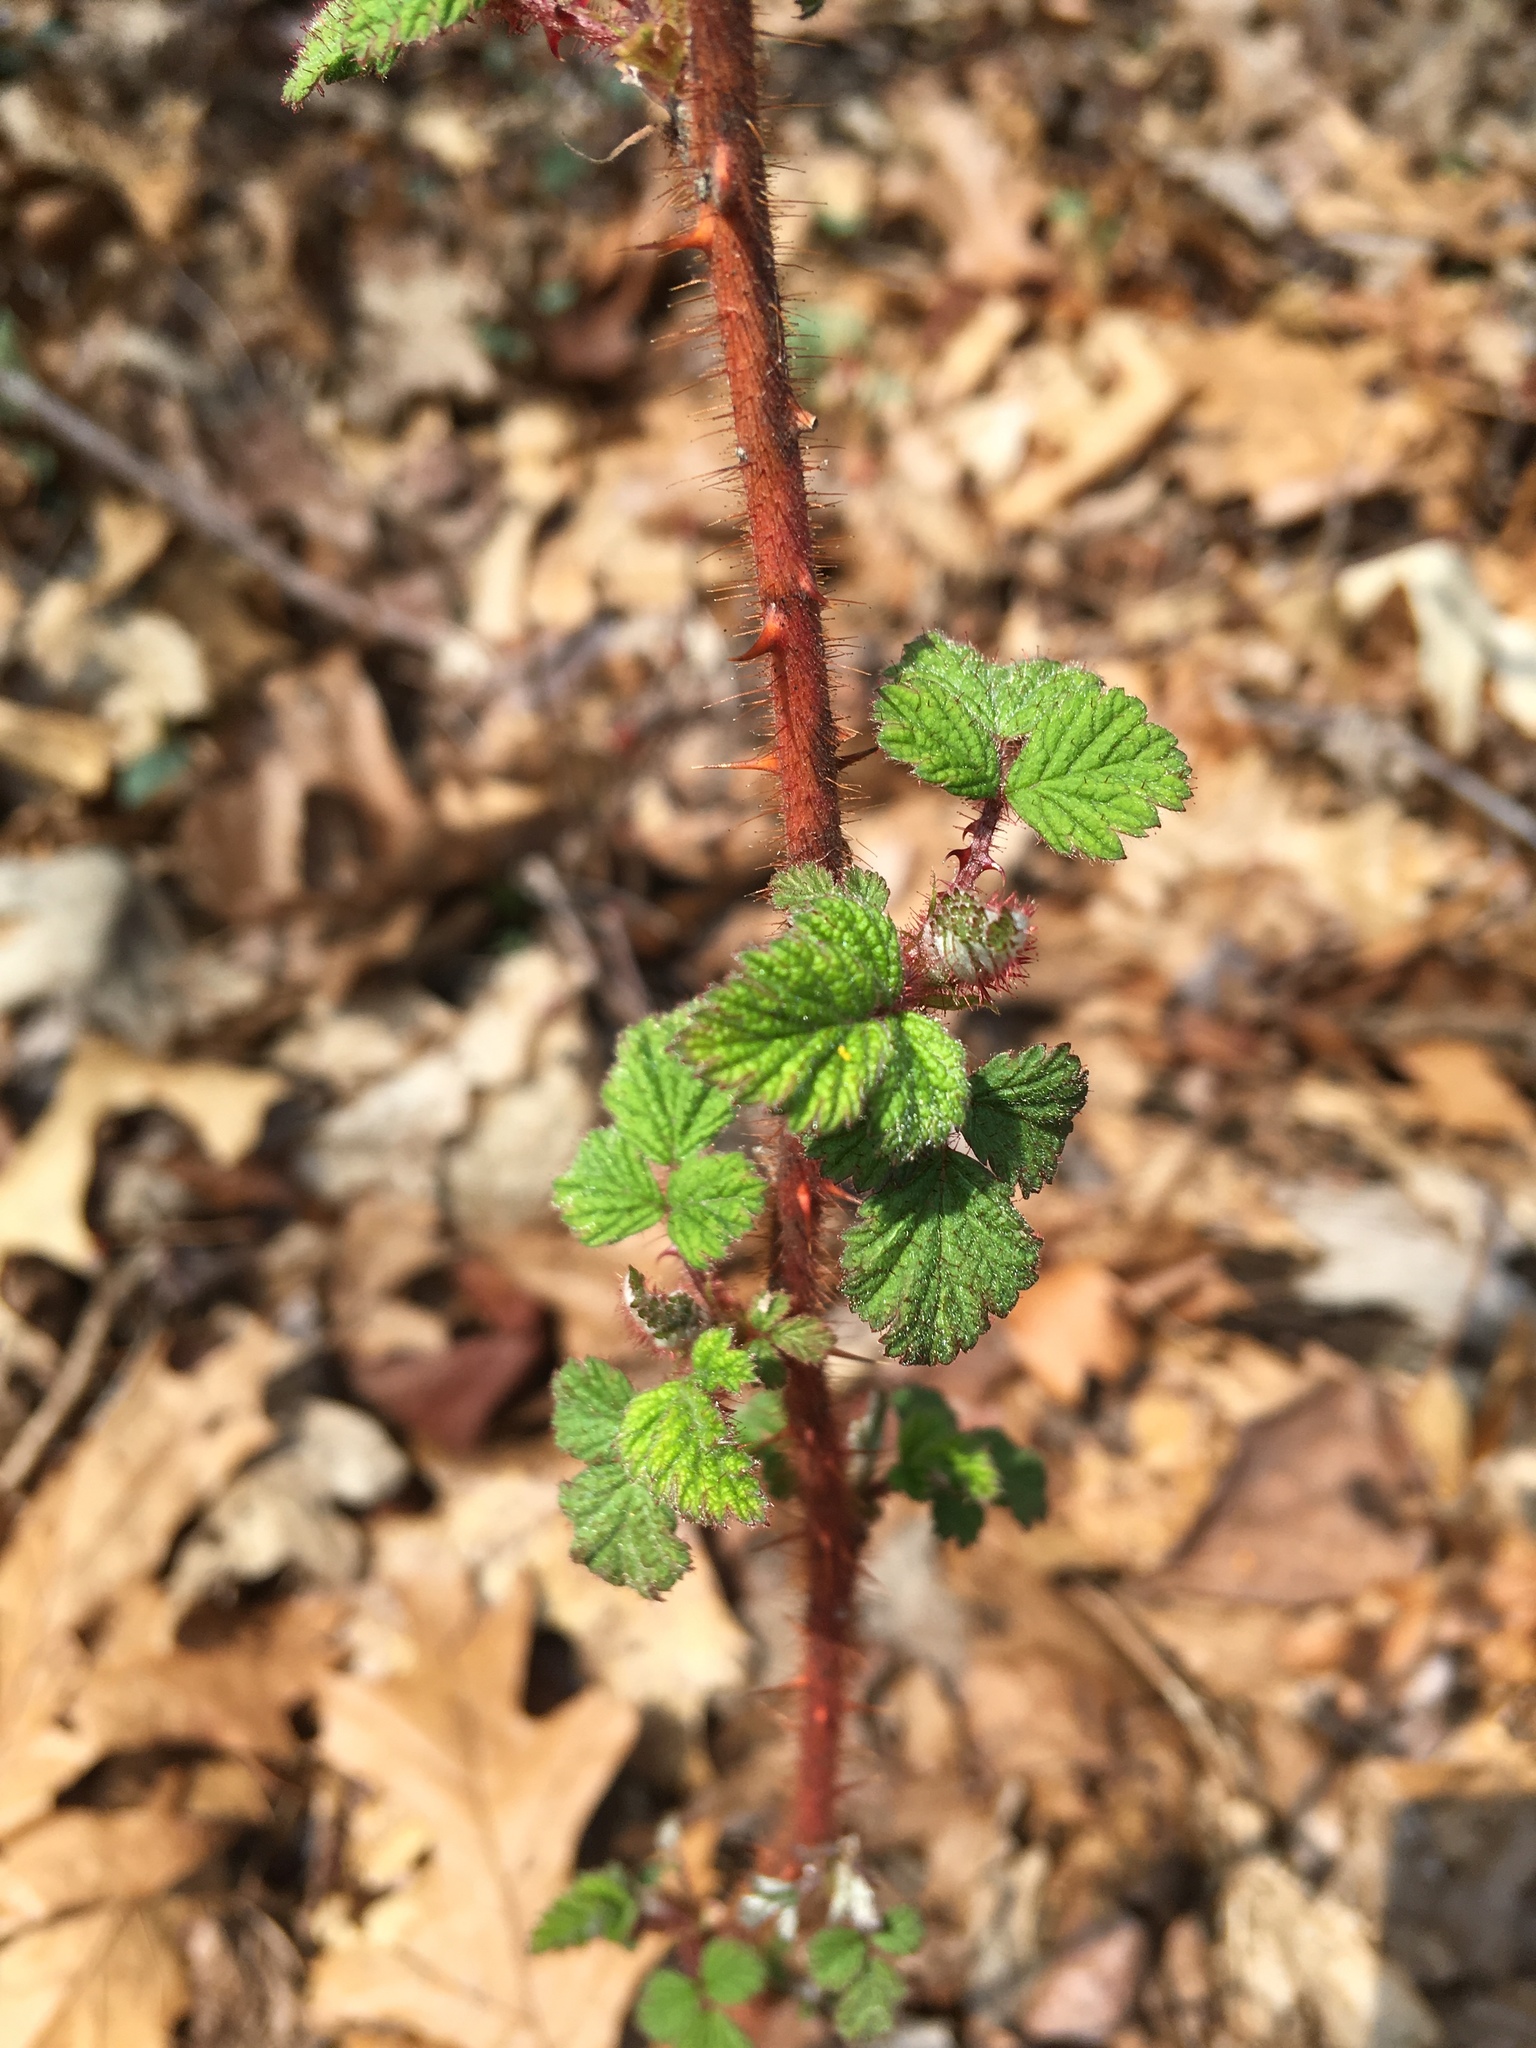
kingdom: Plantae
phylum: Tracheophyta
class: Magnoliopsida
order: Rosales
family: Rosaceae
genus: Rubus
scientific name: Rubus phoenicolasius
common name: Japanese wineberry
